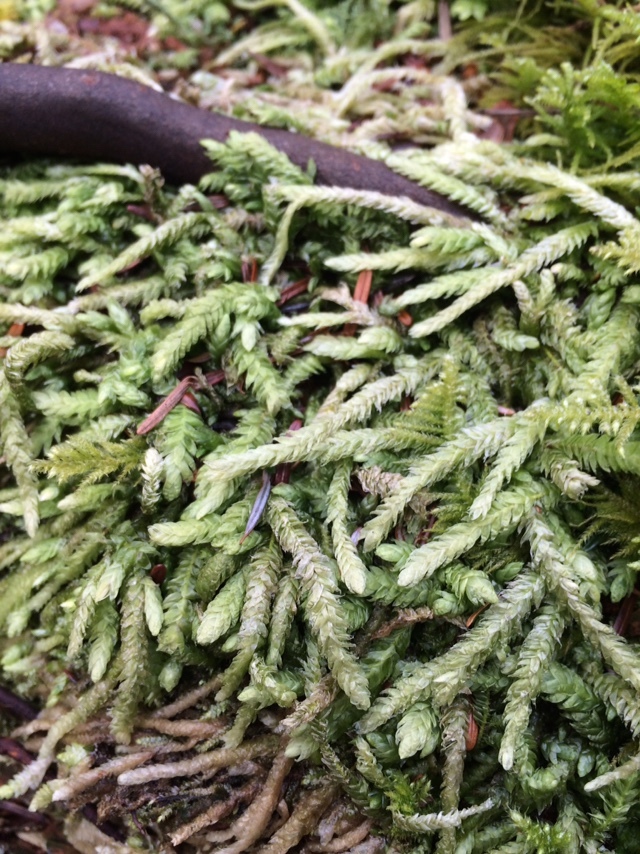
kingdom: Plantae
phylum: Bryophyta
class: Bryopsida
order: Hypnales
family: Plagiotheciaceae
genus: Plagiothecium
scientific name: Plagiothecium undulatum
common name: Waved silk-moss
